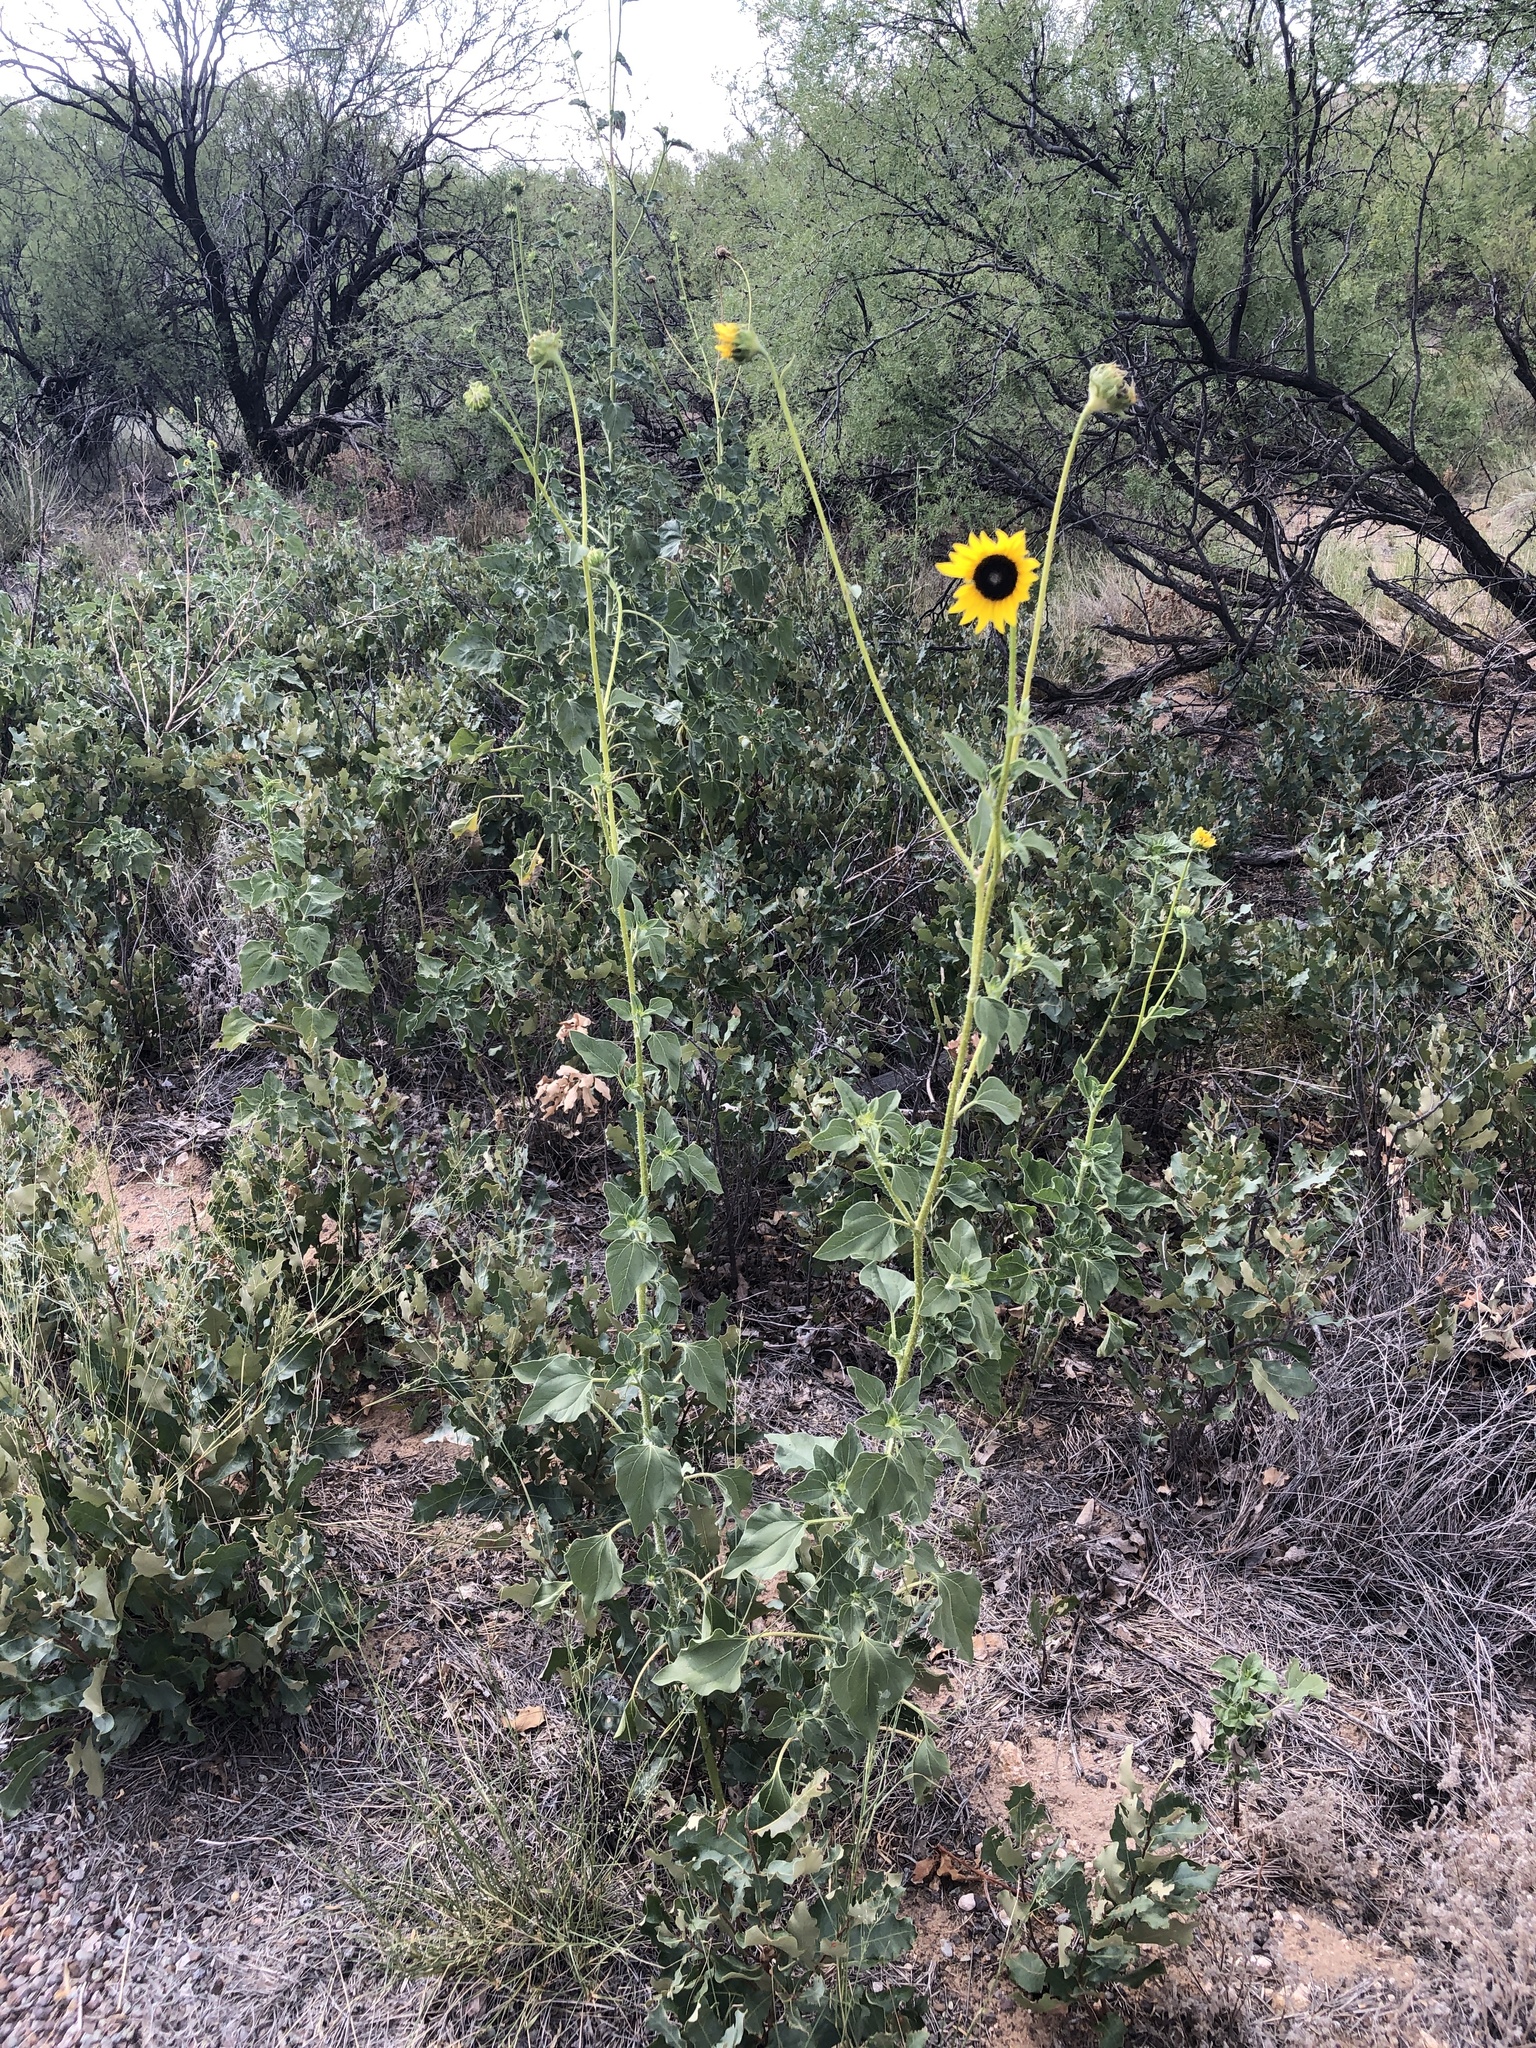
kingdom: Plantae
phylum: Tracheophyta
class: Magnoliopsida
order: Asterales
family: Asteraceae
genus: Helianthus
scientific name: Helianthus petiolaris
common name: Lesser sunflower
